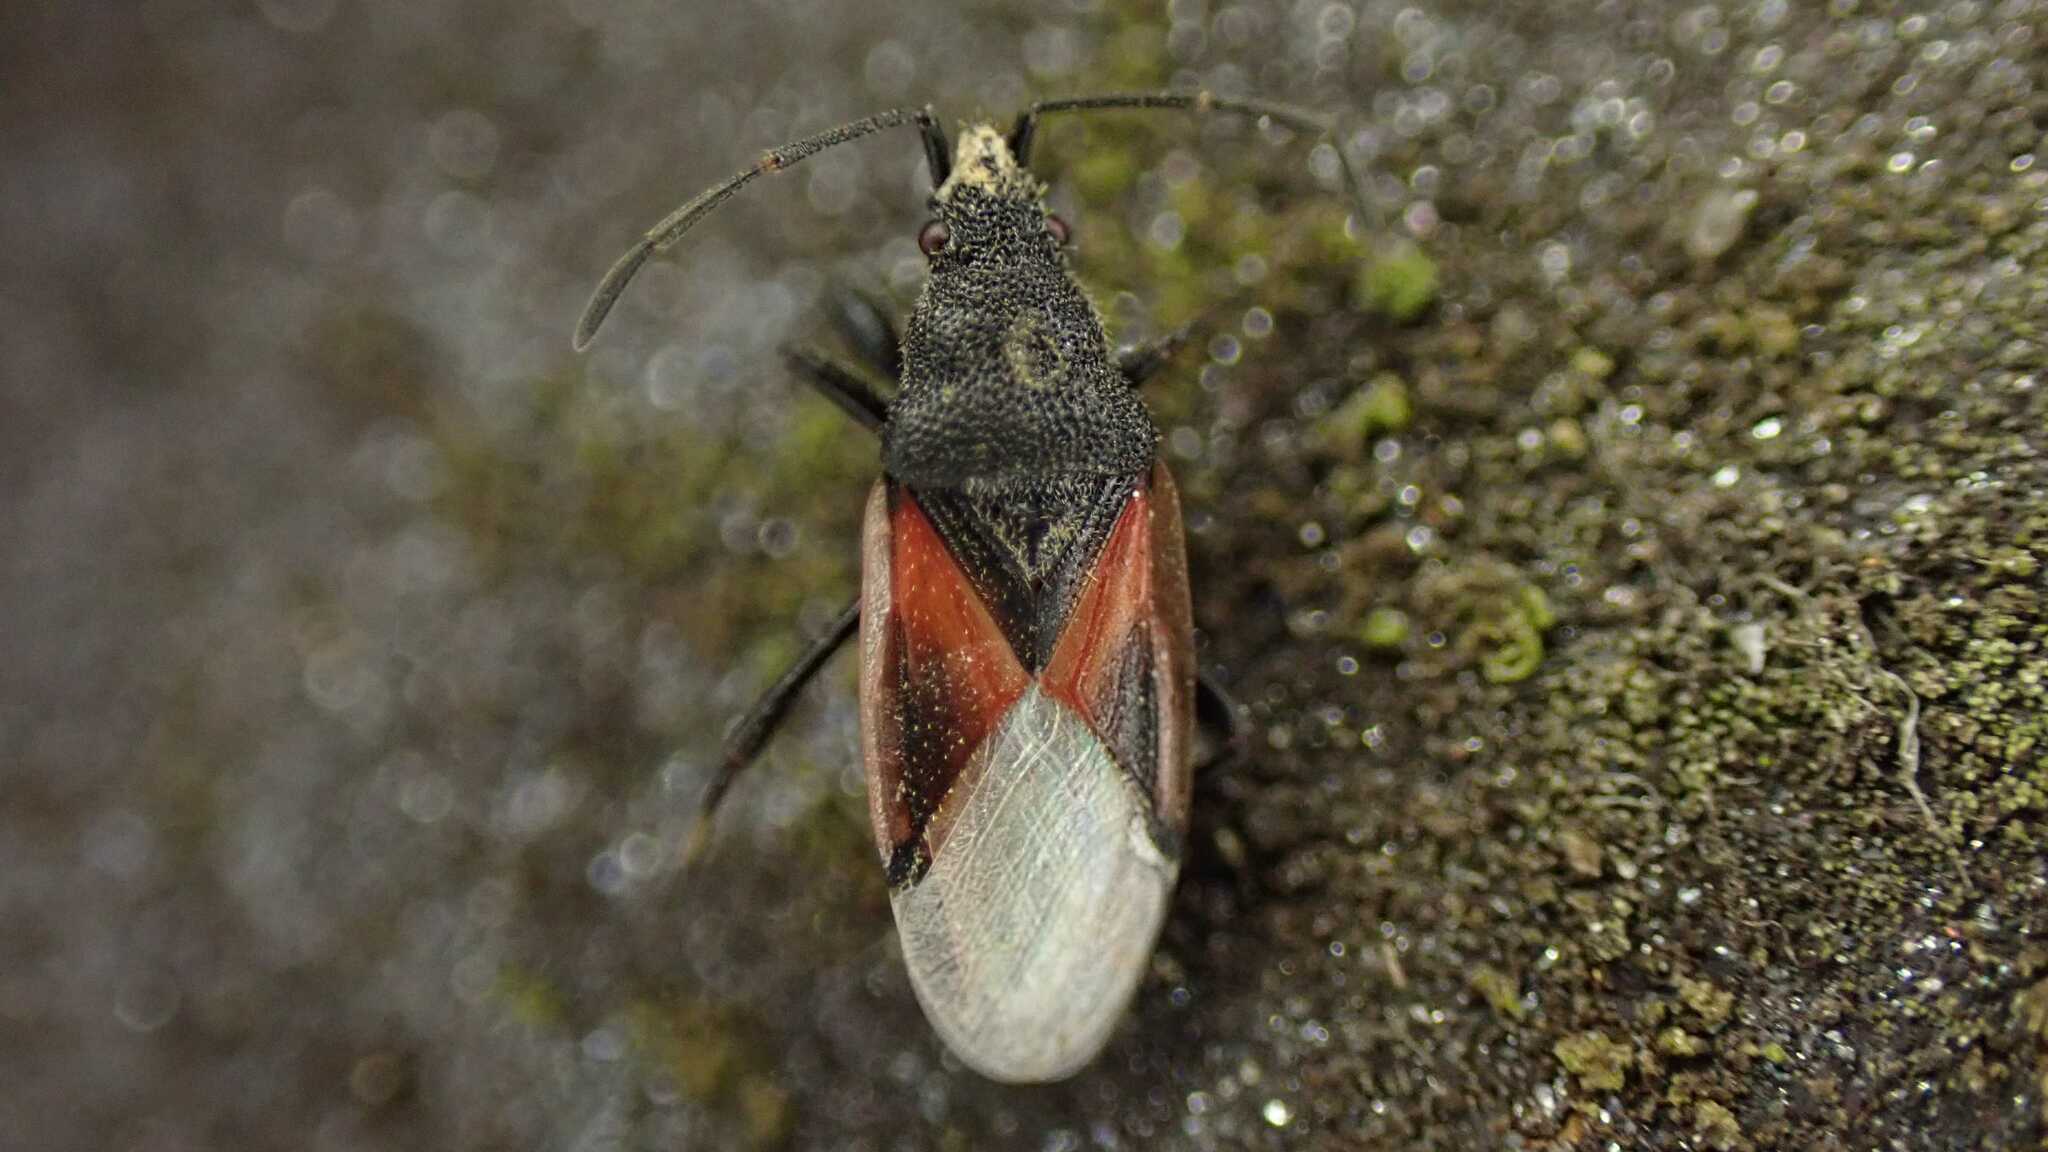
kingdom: Animalia
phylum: Arthropoda
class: Insecta
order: Hemiptera
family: Oxycarenidae
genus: Oxycarenus
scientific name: Oxycarenus lavaterae
